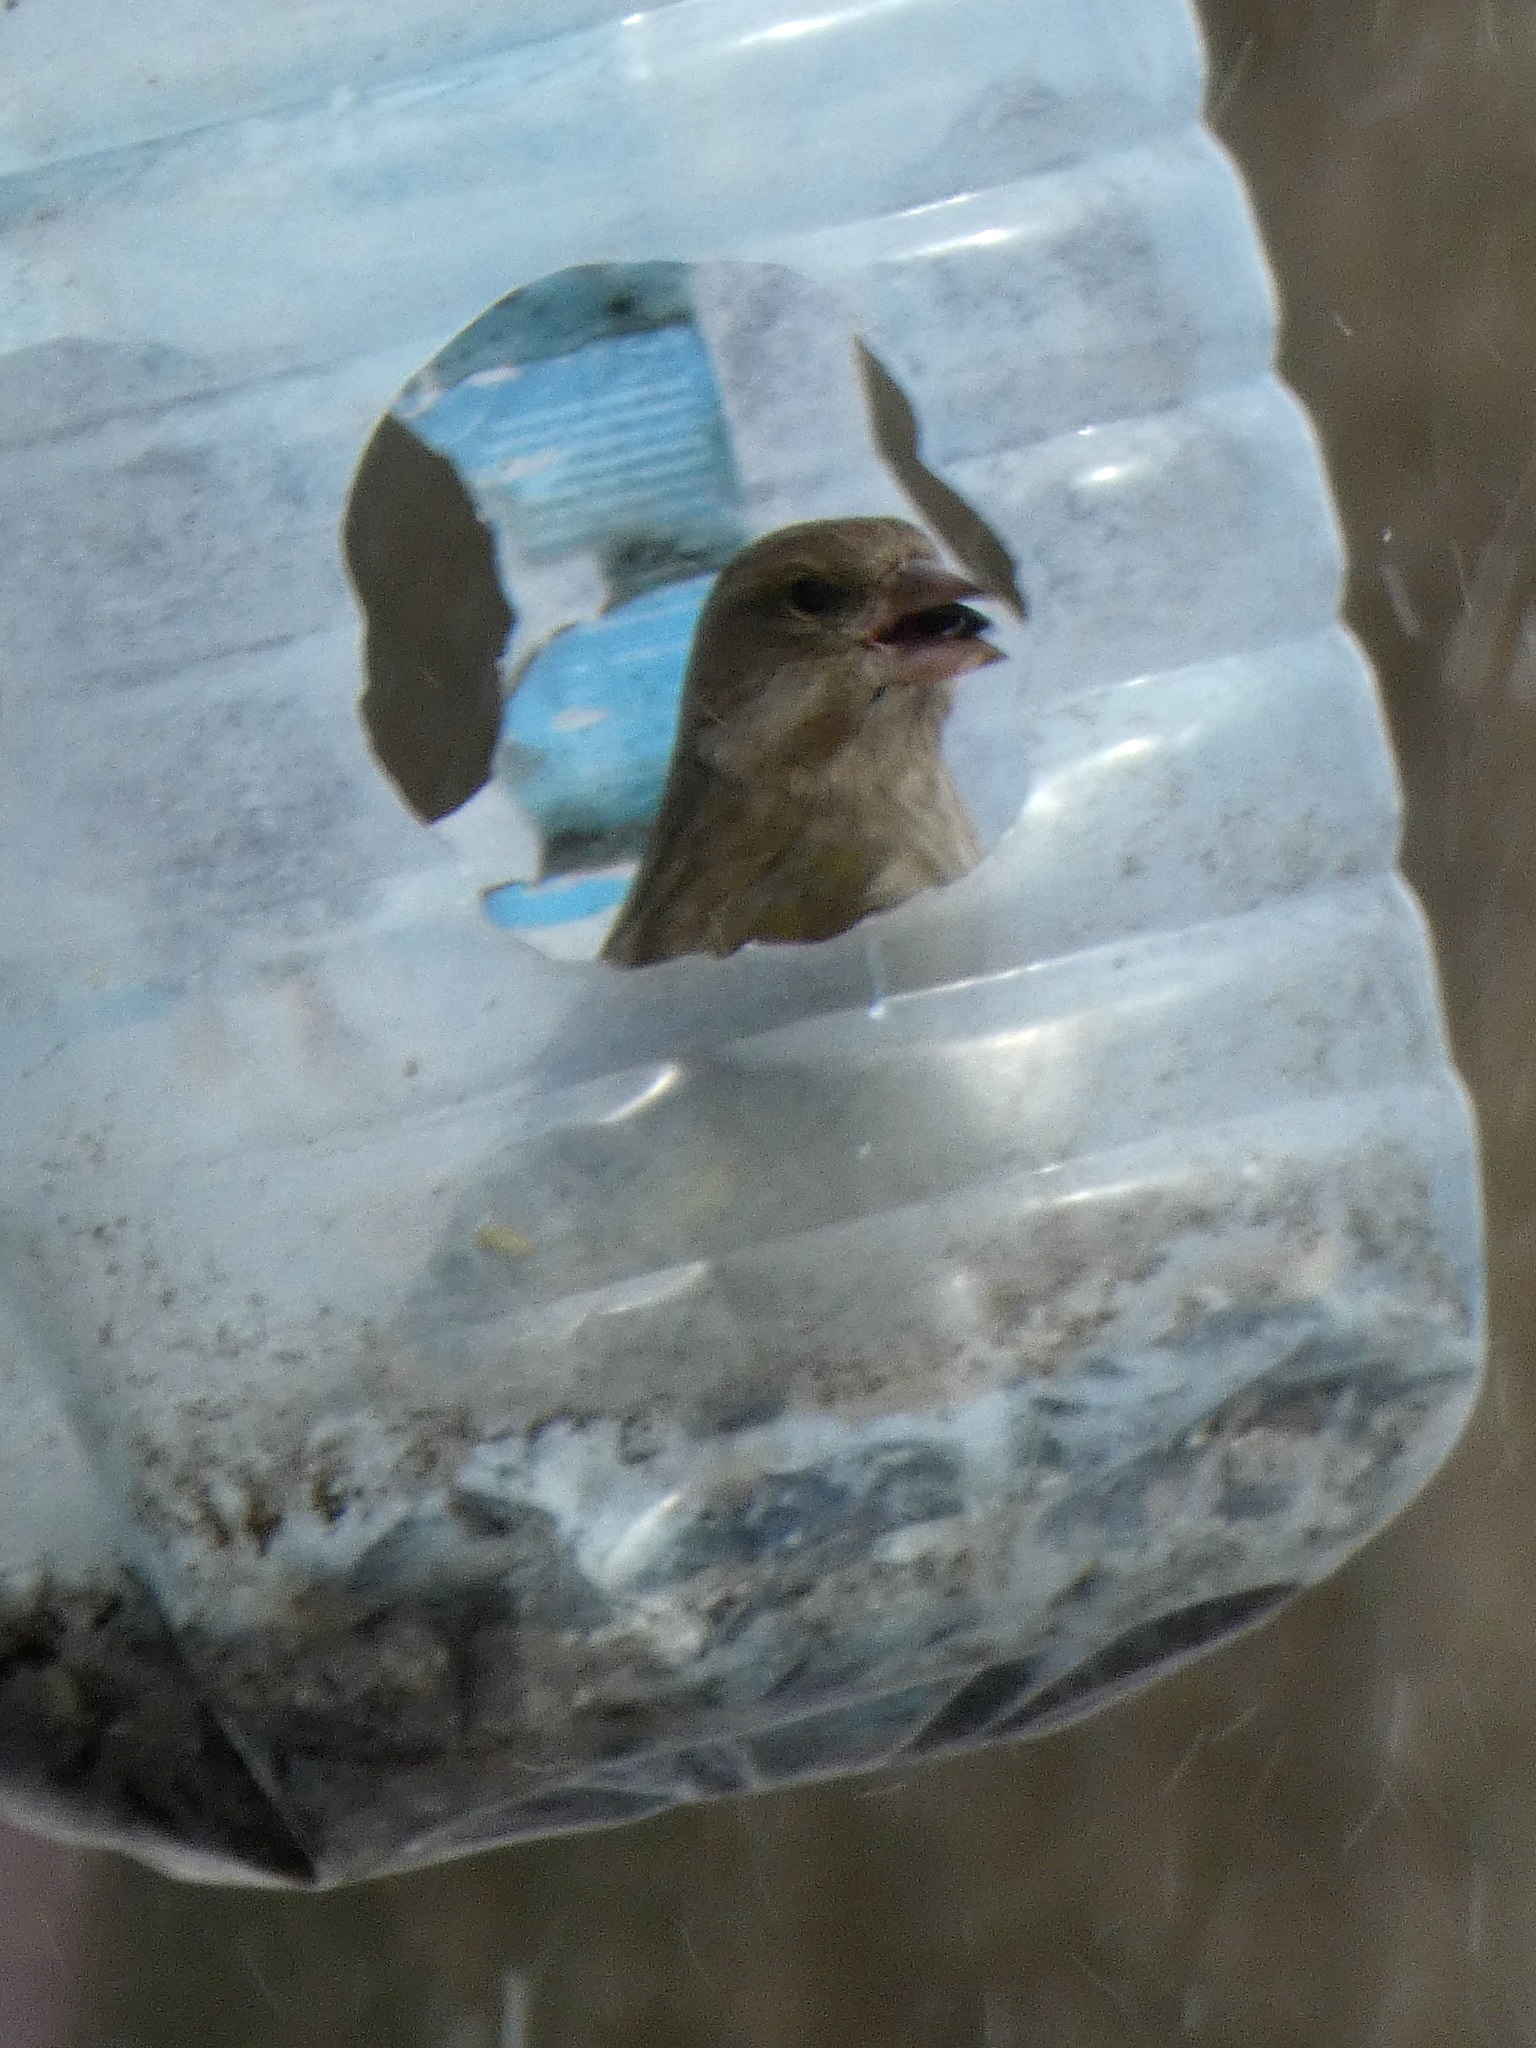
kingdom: Plantae
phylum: Tracheophyta
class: Liliopsida
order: Poales
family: Poaceae
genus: Chloris
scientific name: Chloris chloris
